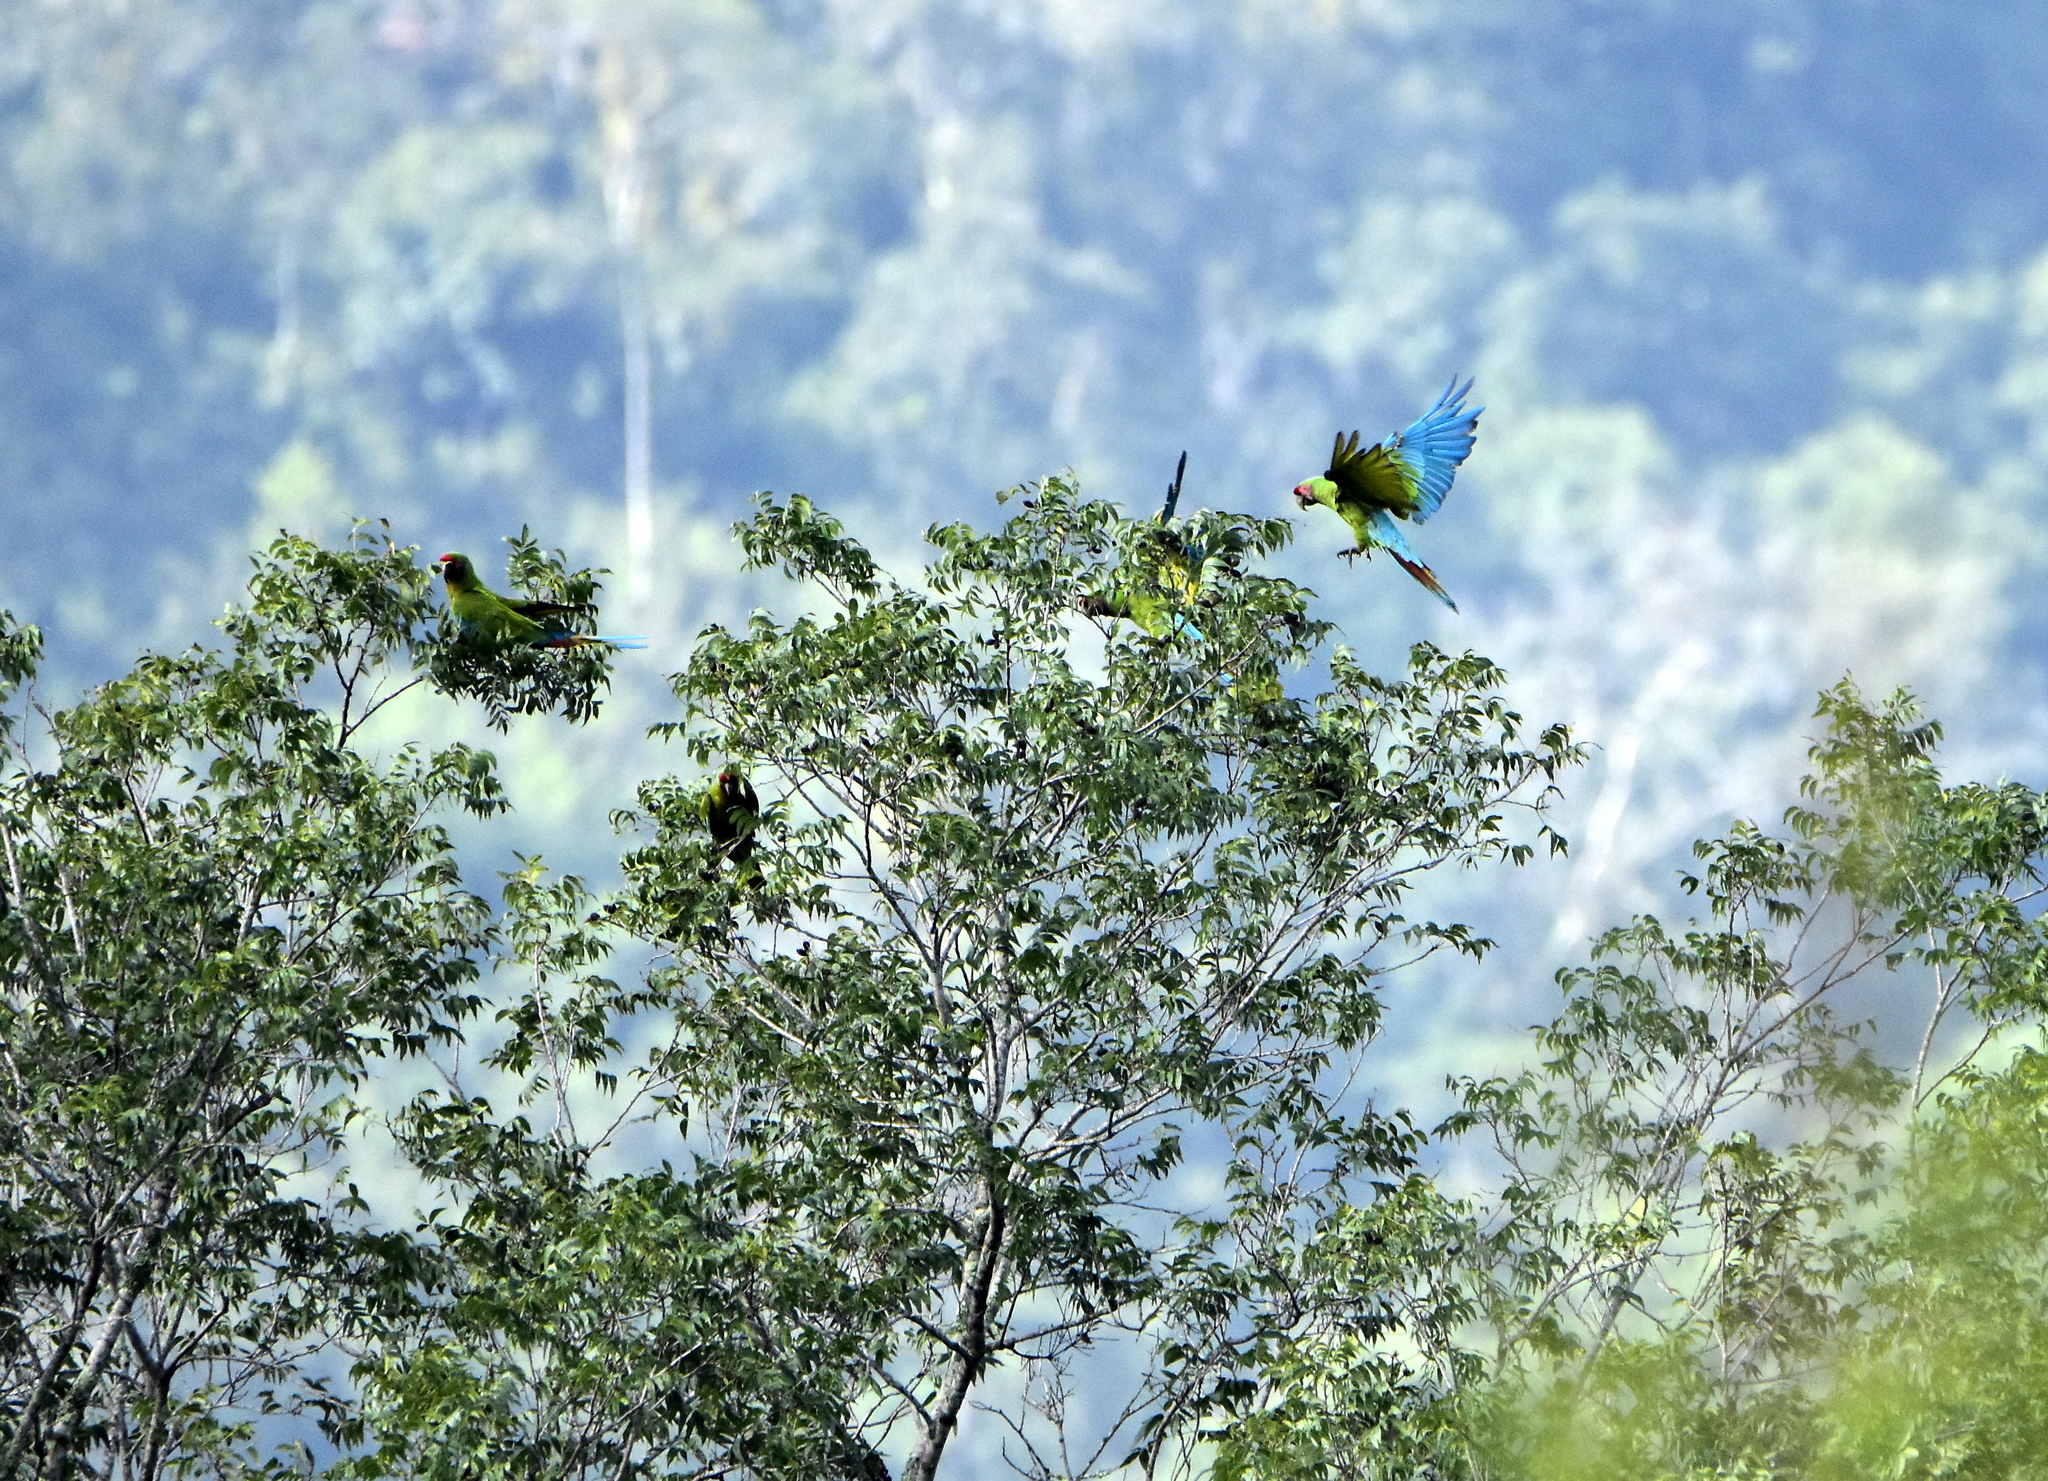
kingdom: Animalia
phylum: Chordata
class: Aves
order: Psittaciformes
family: Psittacidae
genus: Ara
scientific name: Ara militaris
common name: Military macaw
